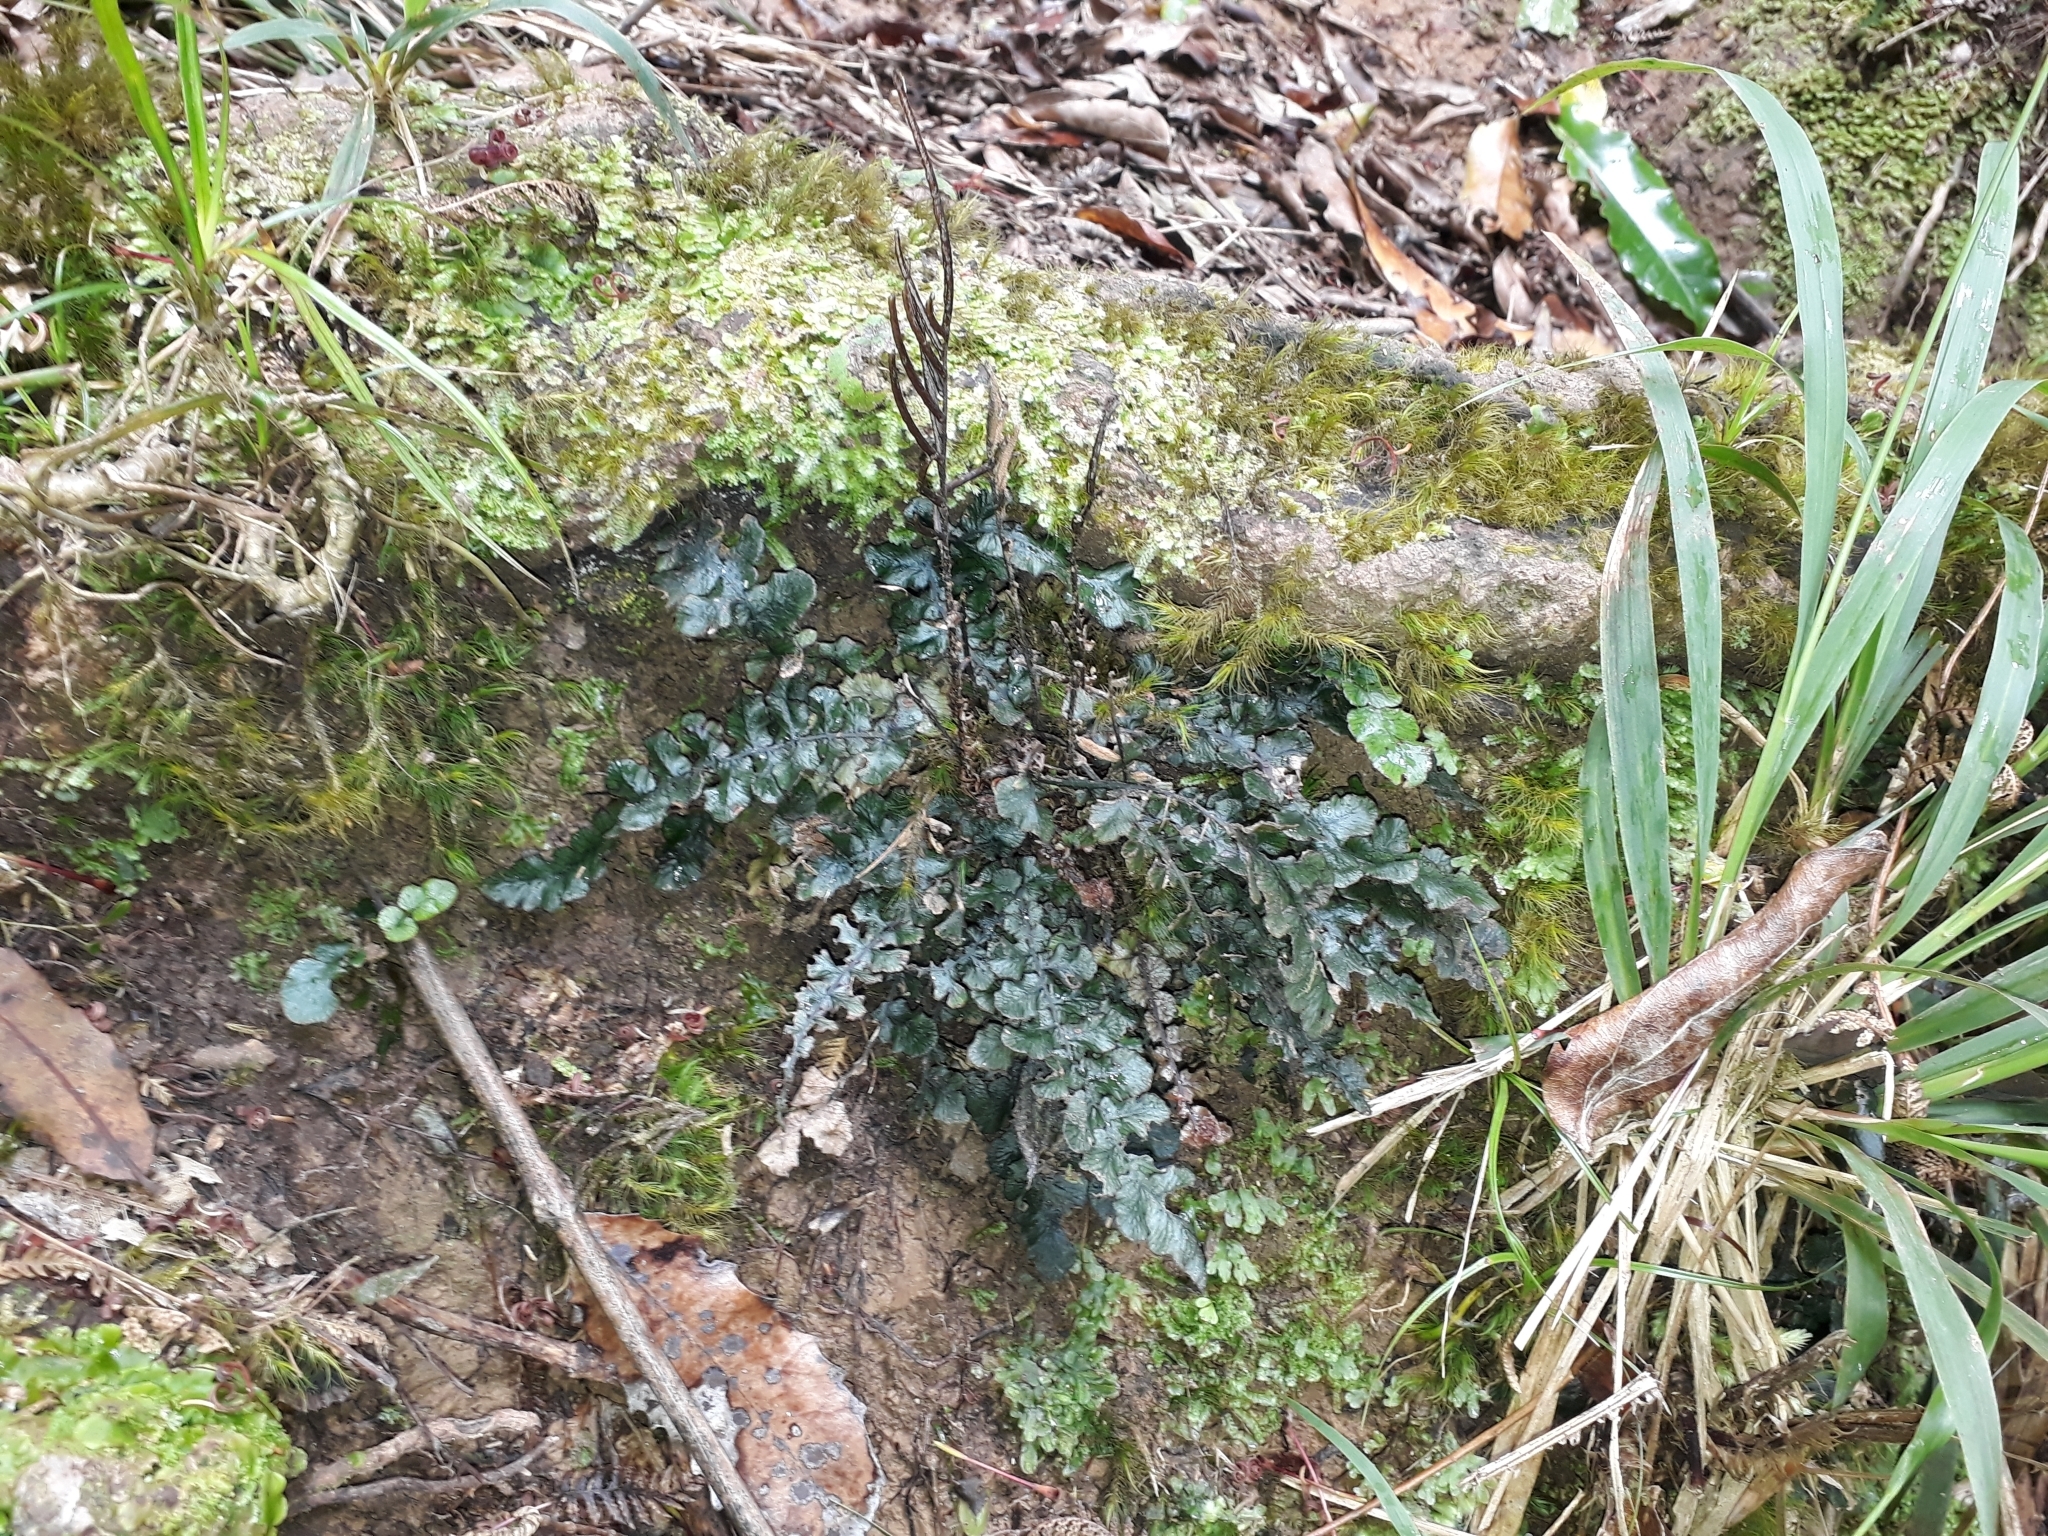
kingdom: Plantae
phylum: Tracheophyta
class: Polypodiopsida
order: Polypodiales
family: Blechnaceae
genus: Cranfillia
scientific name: Cranfillia nigra
